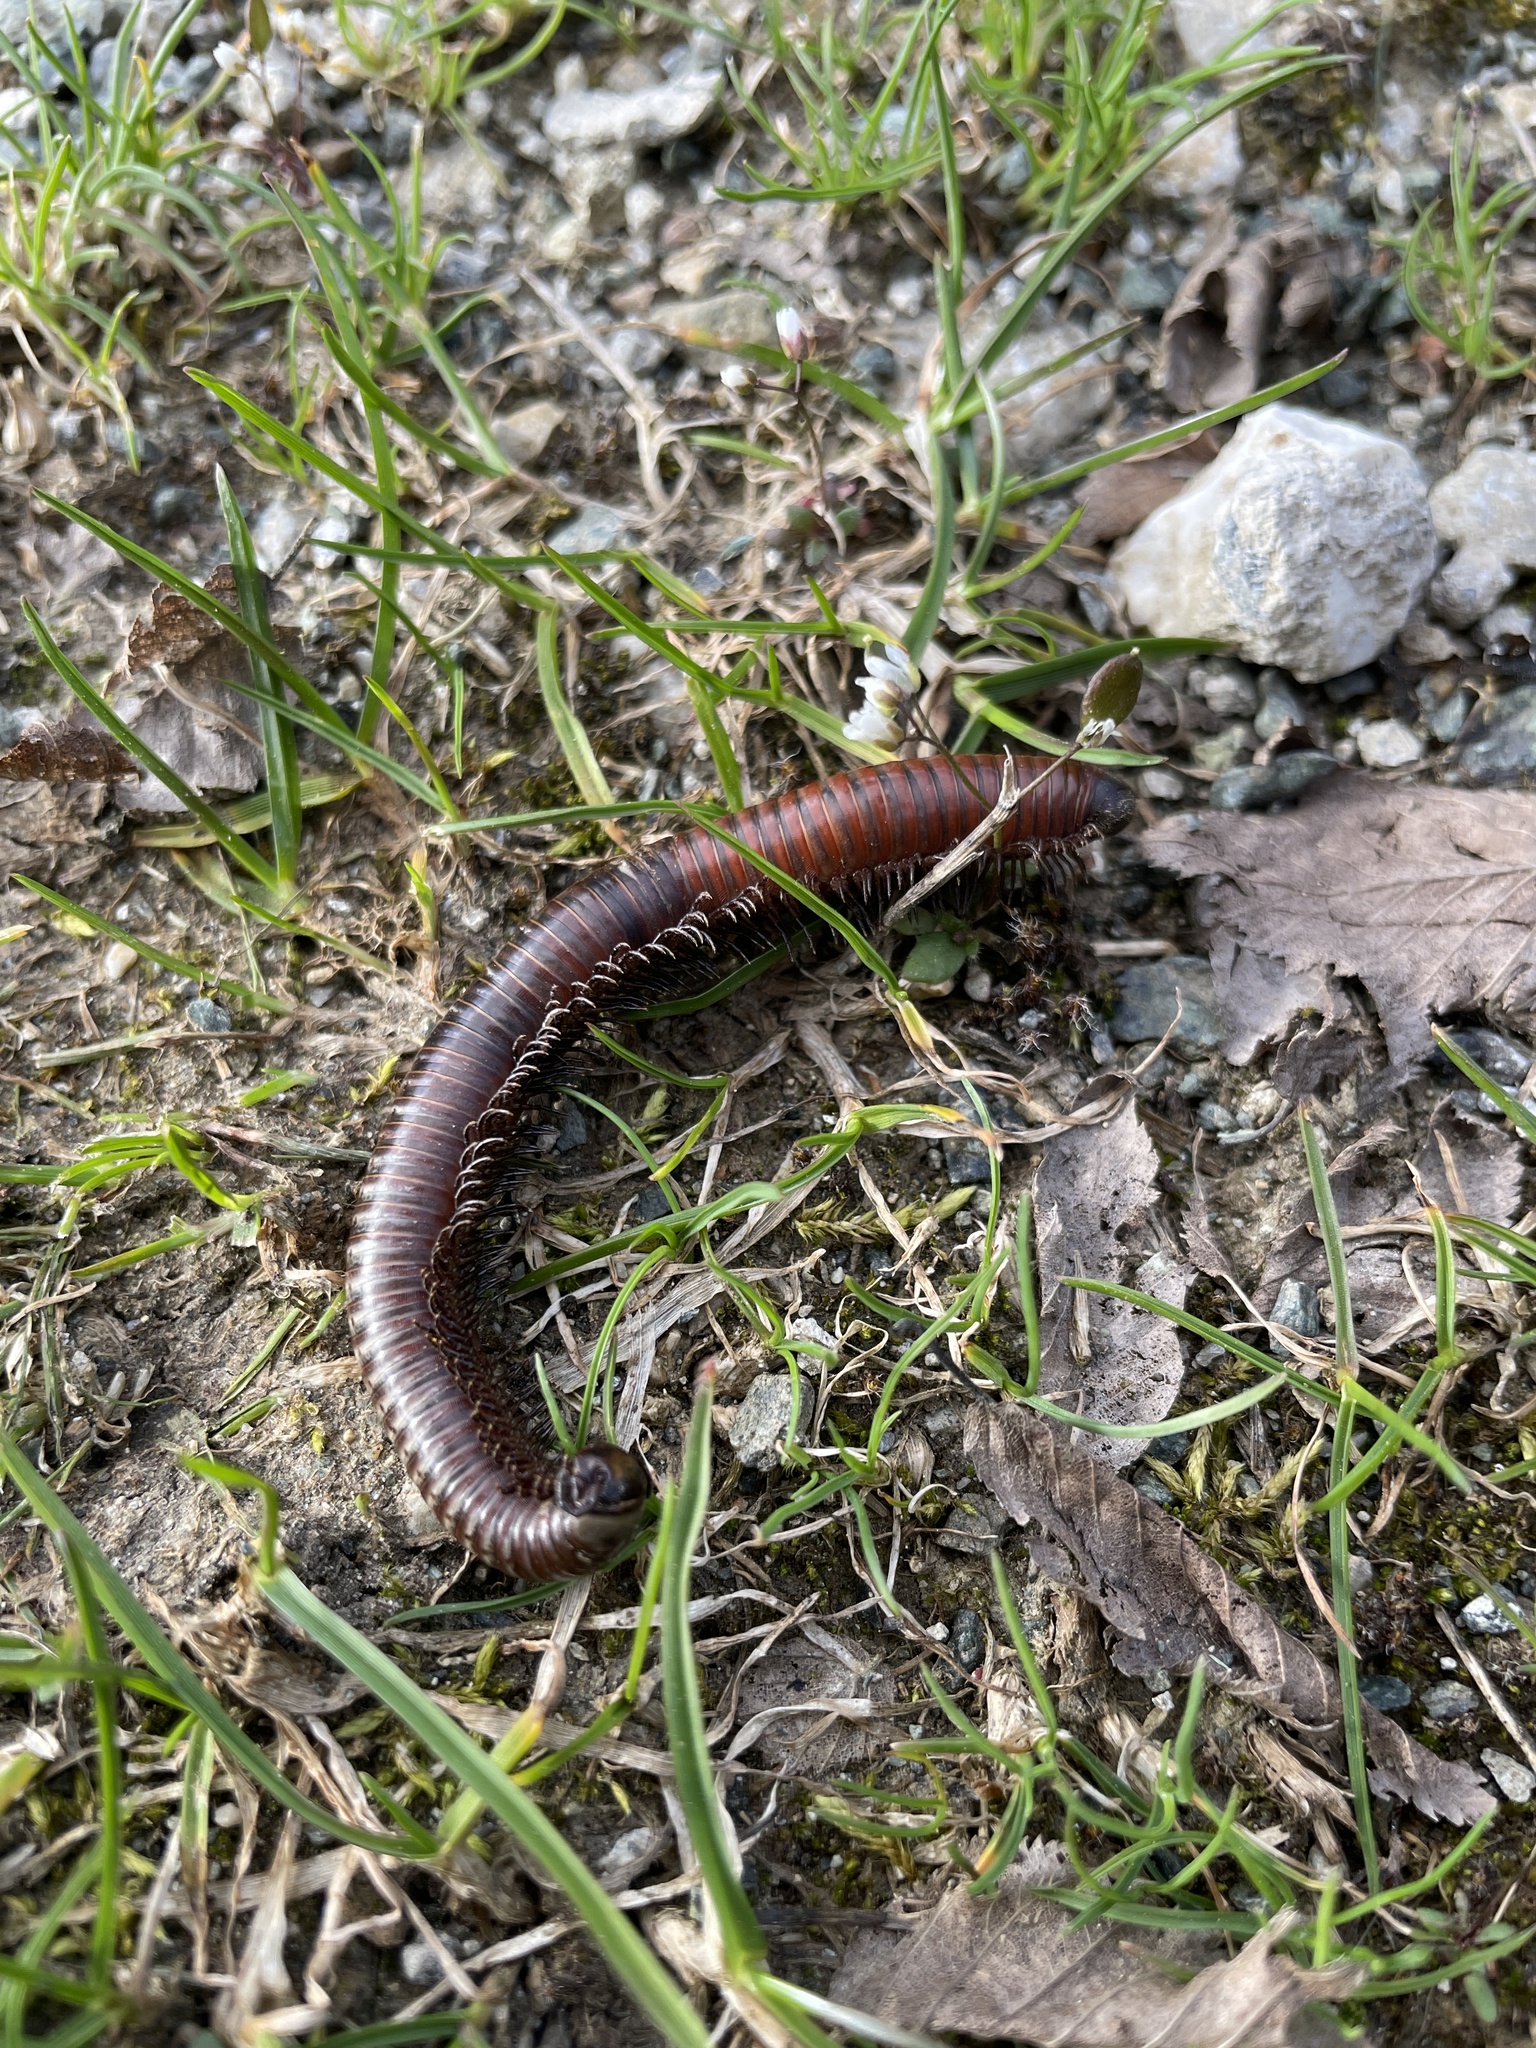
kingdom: Animalia
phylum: Arthropoda
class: Diplopoda
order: Julida
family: Julidae
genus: Pachyiulus
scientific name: Pachyiulus hungaricus
